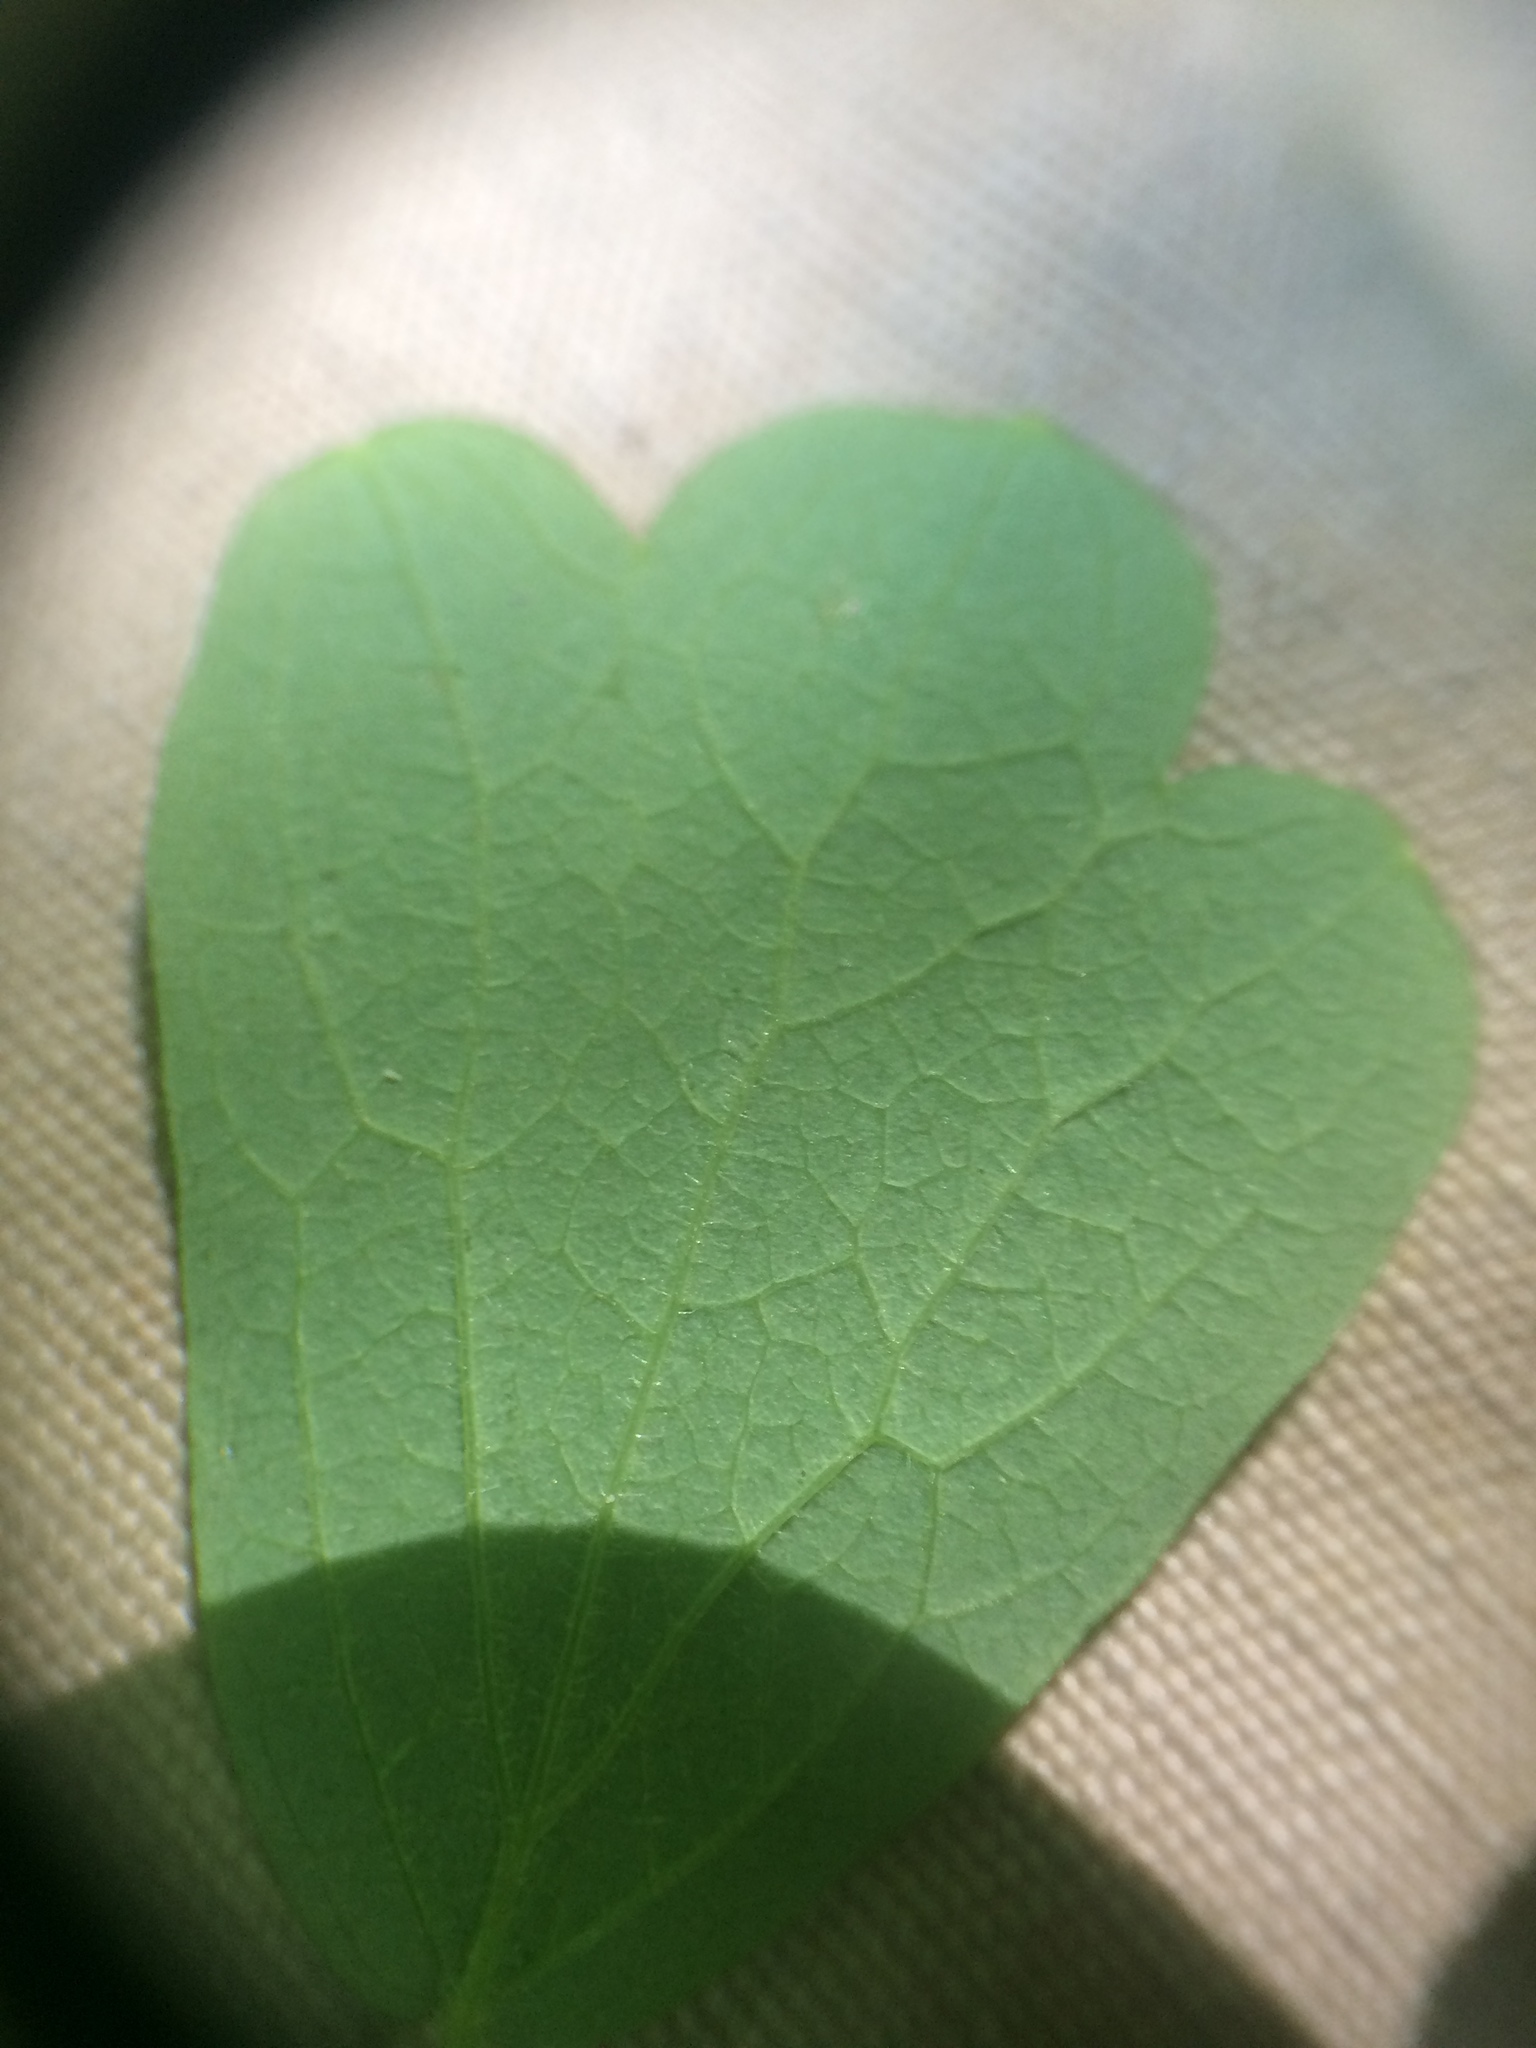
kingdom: Plantae
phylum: Tracheophyta
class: Magnoliopsida
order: Ranunculales
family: Ranunculaceae
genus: Thalictrum
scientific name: Thalictrum pubescens
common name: King-of-the-meadow
